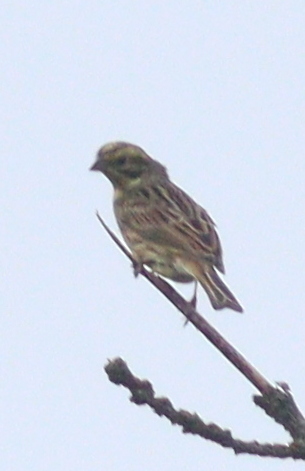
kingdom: Animalia
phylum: Chordata
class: Aves
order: Passeriformes
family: Emberizidae
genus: Emberiza
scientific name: Emberiza citrinella
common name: Yellowhammer
